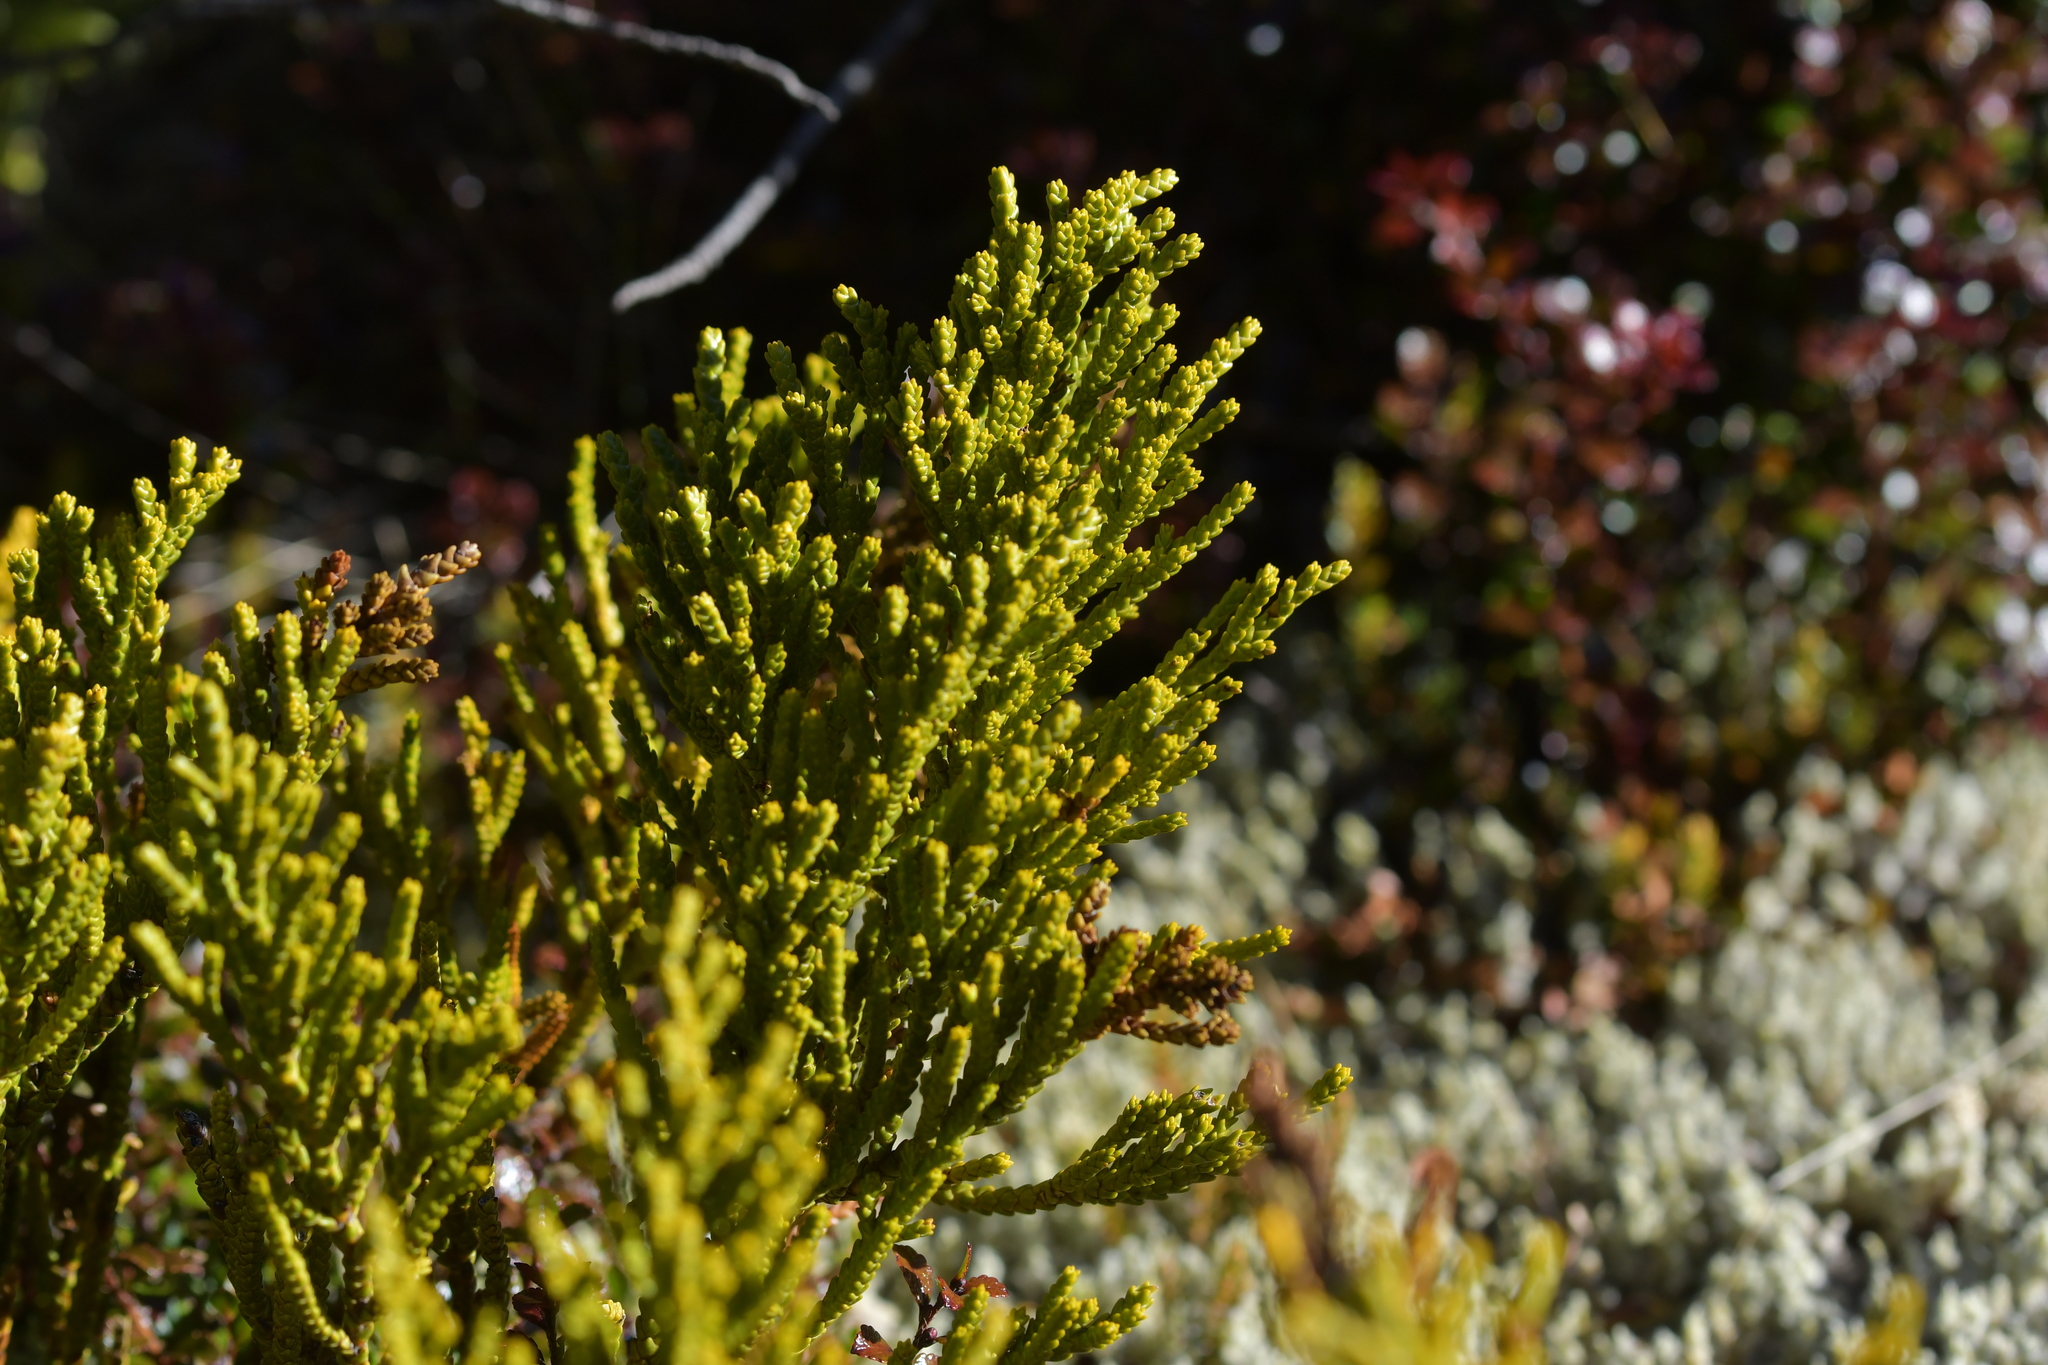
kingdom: Plantae
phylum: Tracheophyta
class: Magnoliopsida
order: Lamiales
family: Plantaginaceae
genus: Veronica
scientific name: Veronica tetragona
